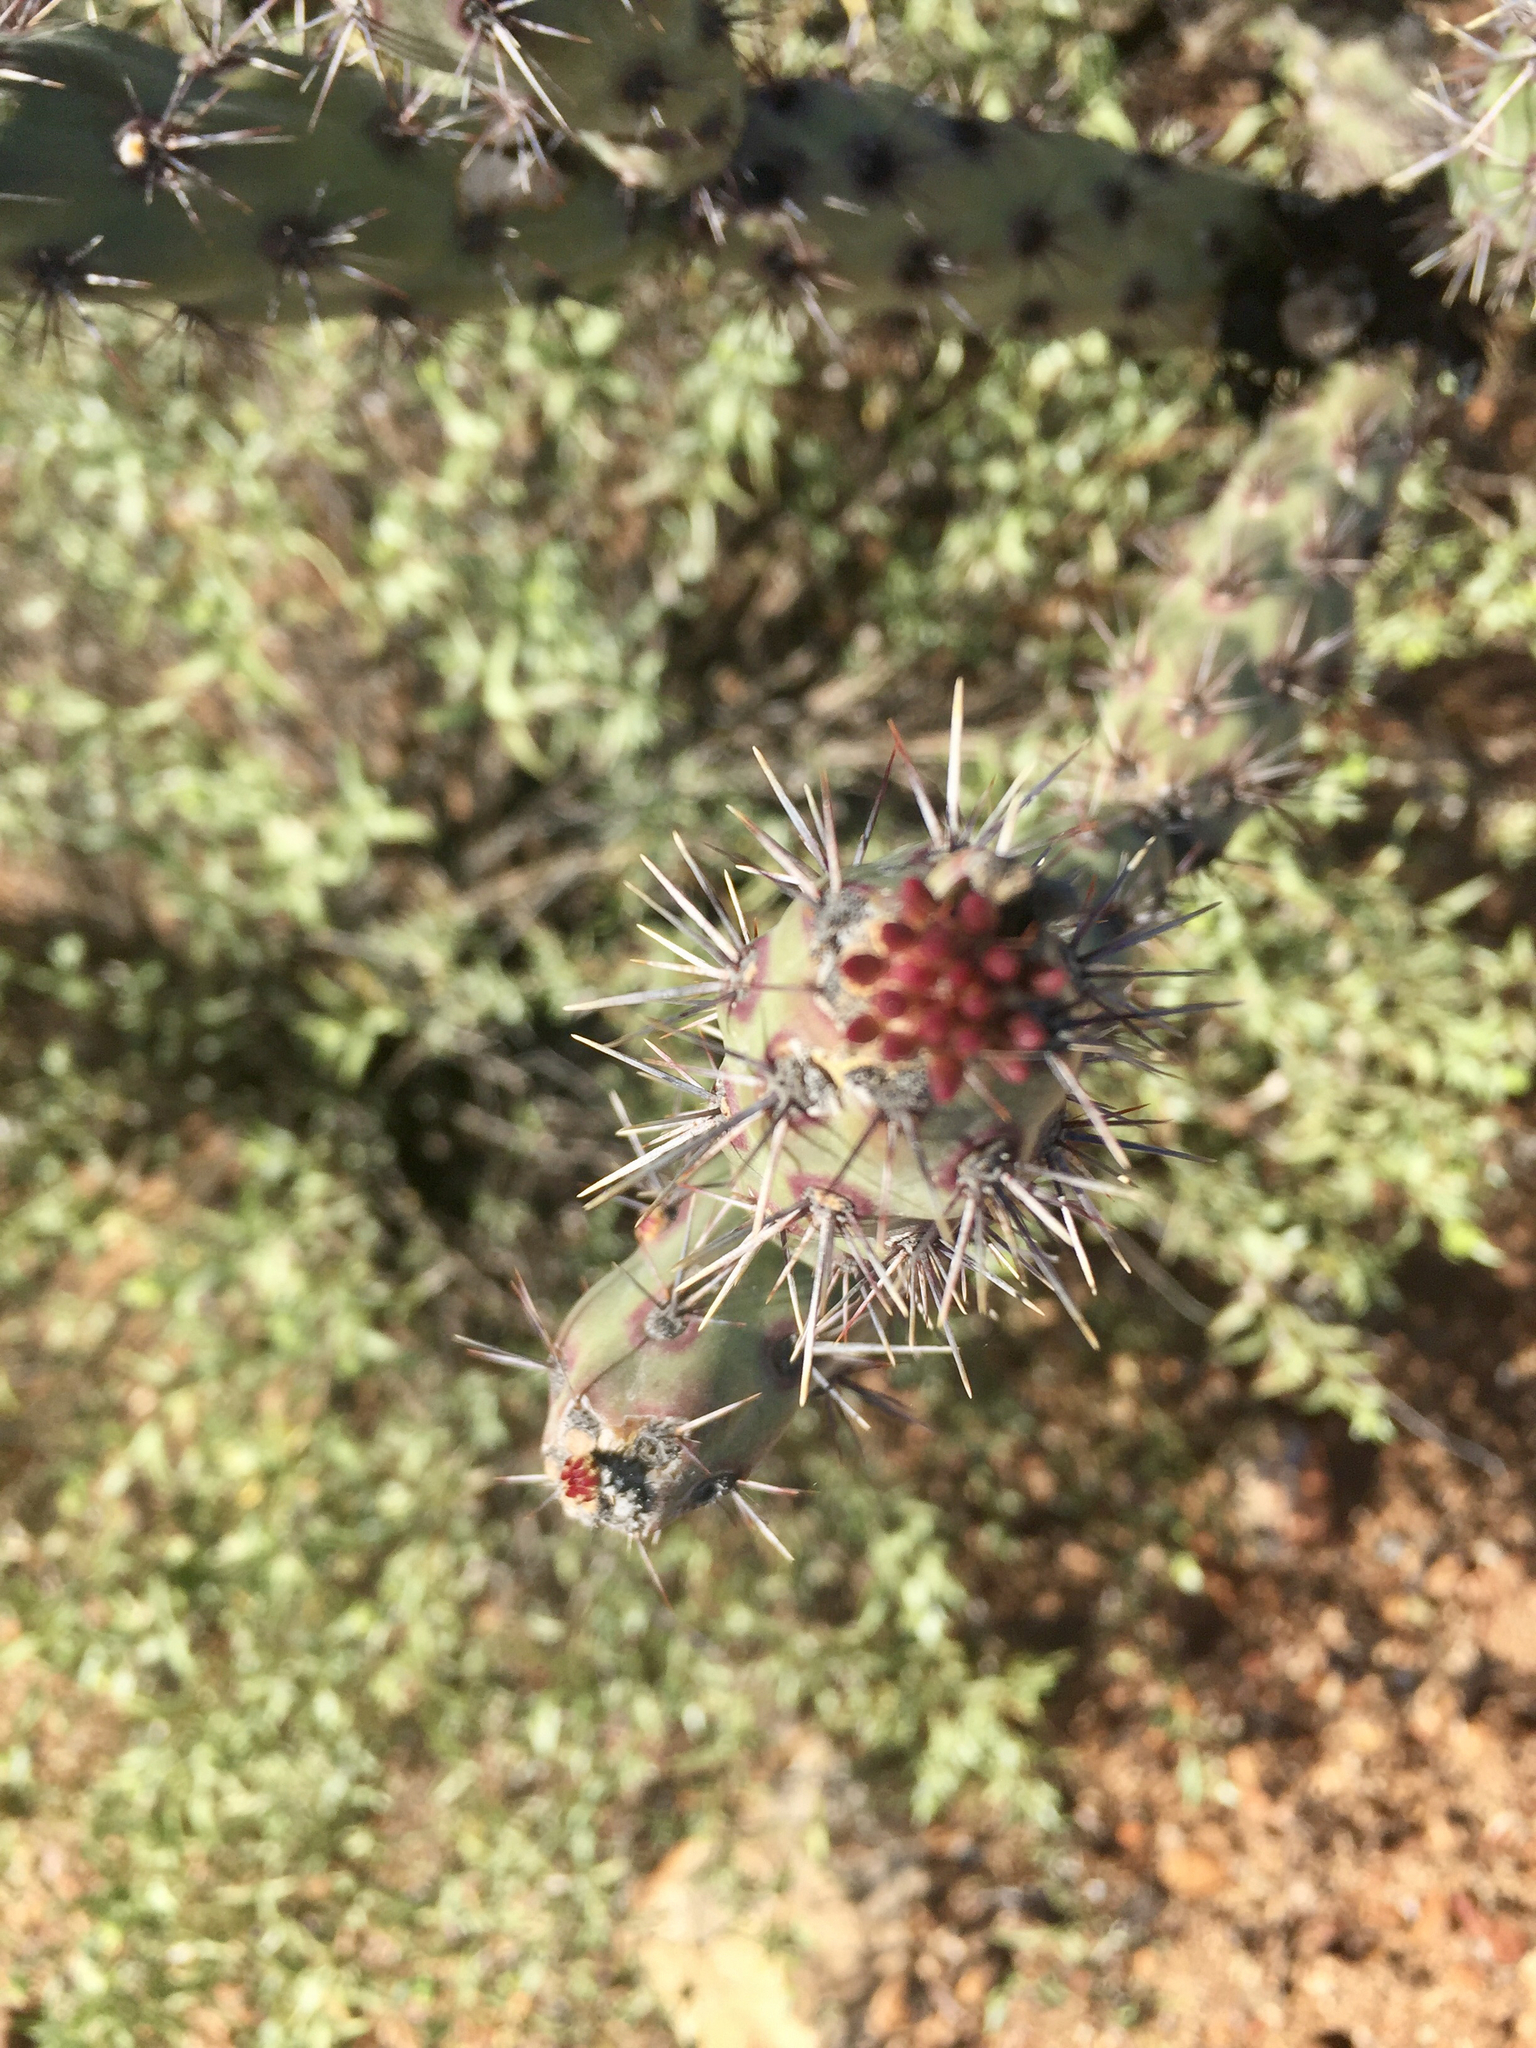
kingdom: Plantae
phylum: Tracheophyta
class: Magnoliopsida
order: Caryophyllales
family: Cactaceae
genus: Cylindropuntia
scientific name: Cylindropuntia acanthocarpa
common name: Buckhorn cholla
